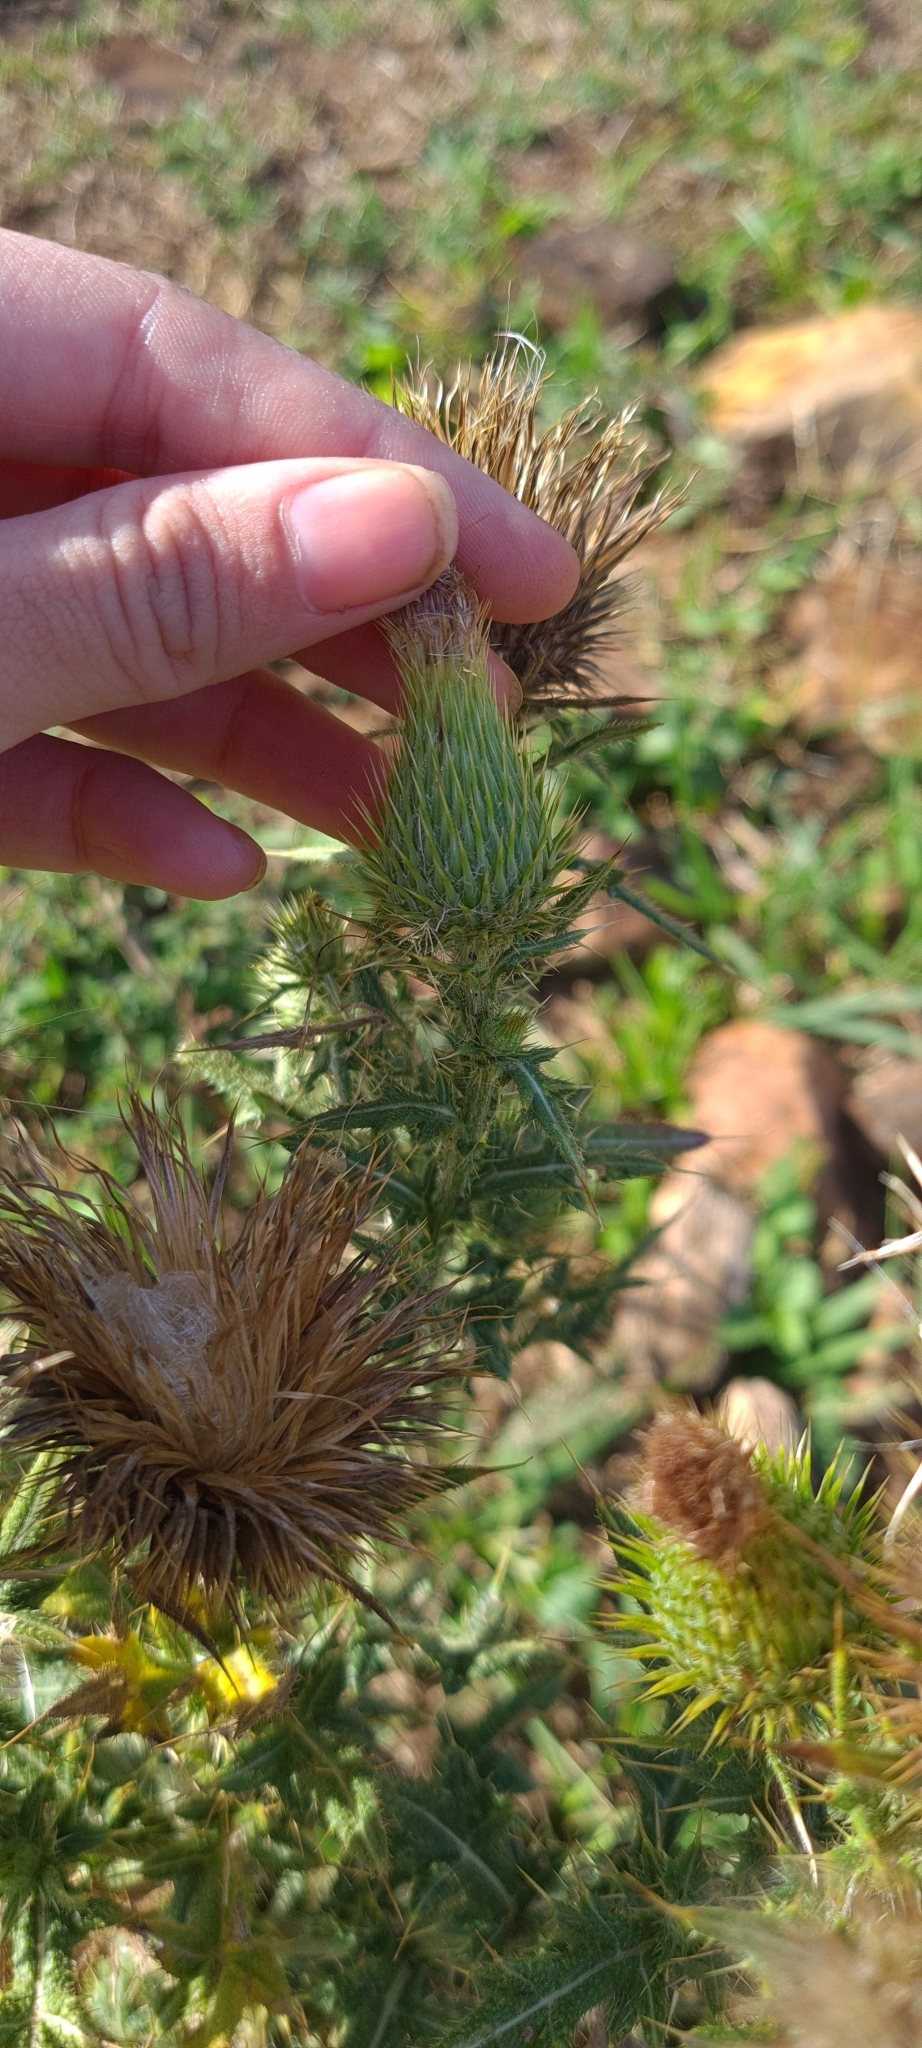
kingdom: Plantae
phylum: Tracheophyta
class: Magnoliopsida
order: Asterales
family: Asteraceae
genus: Cirsium
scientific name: Cirsium vulgare
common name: Bull thistle
